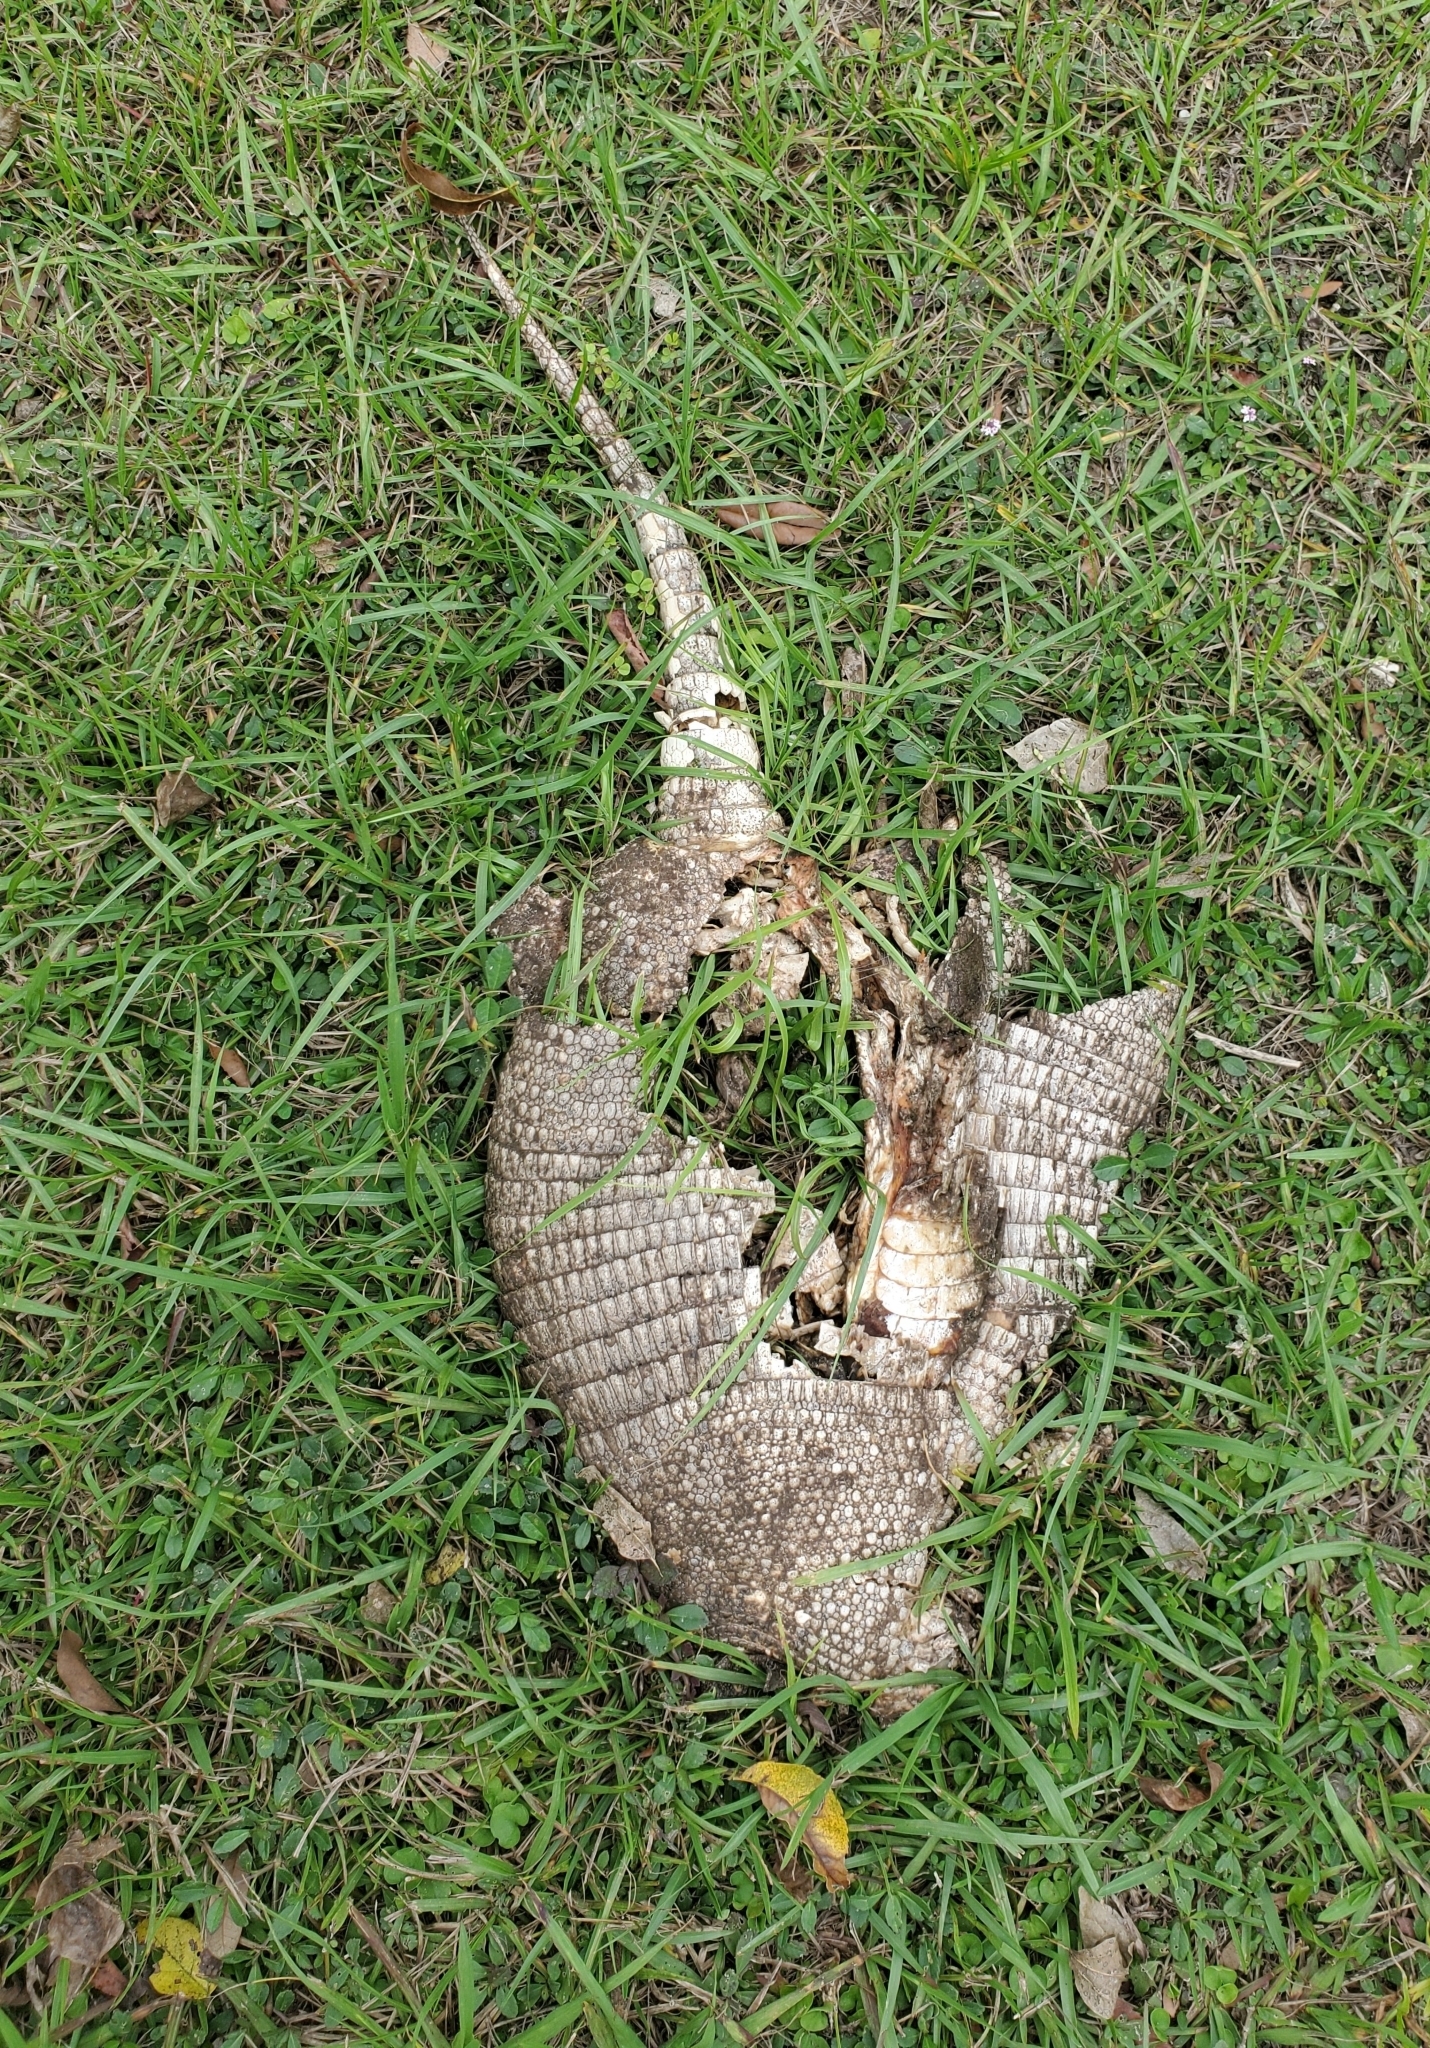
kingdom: Animalia
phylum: Chordata
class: Mammalia
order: Cingulata
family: Dasypodidae
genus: Dasypus
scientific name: Dasypus novemcinctus
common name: Nine-banded armadillo
